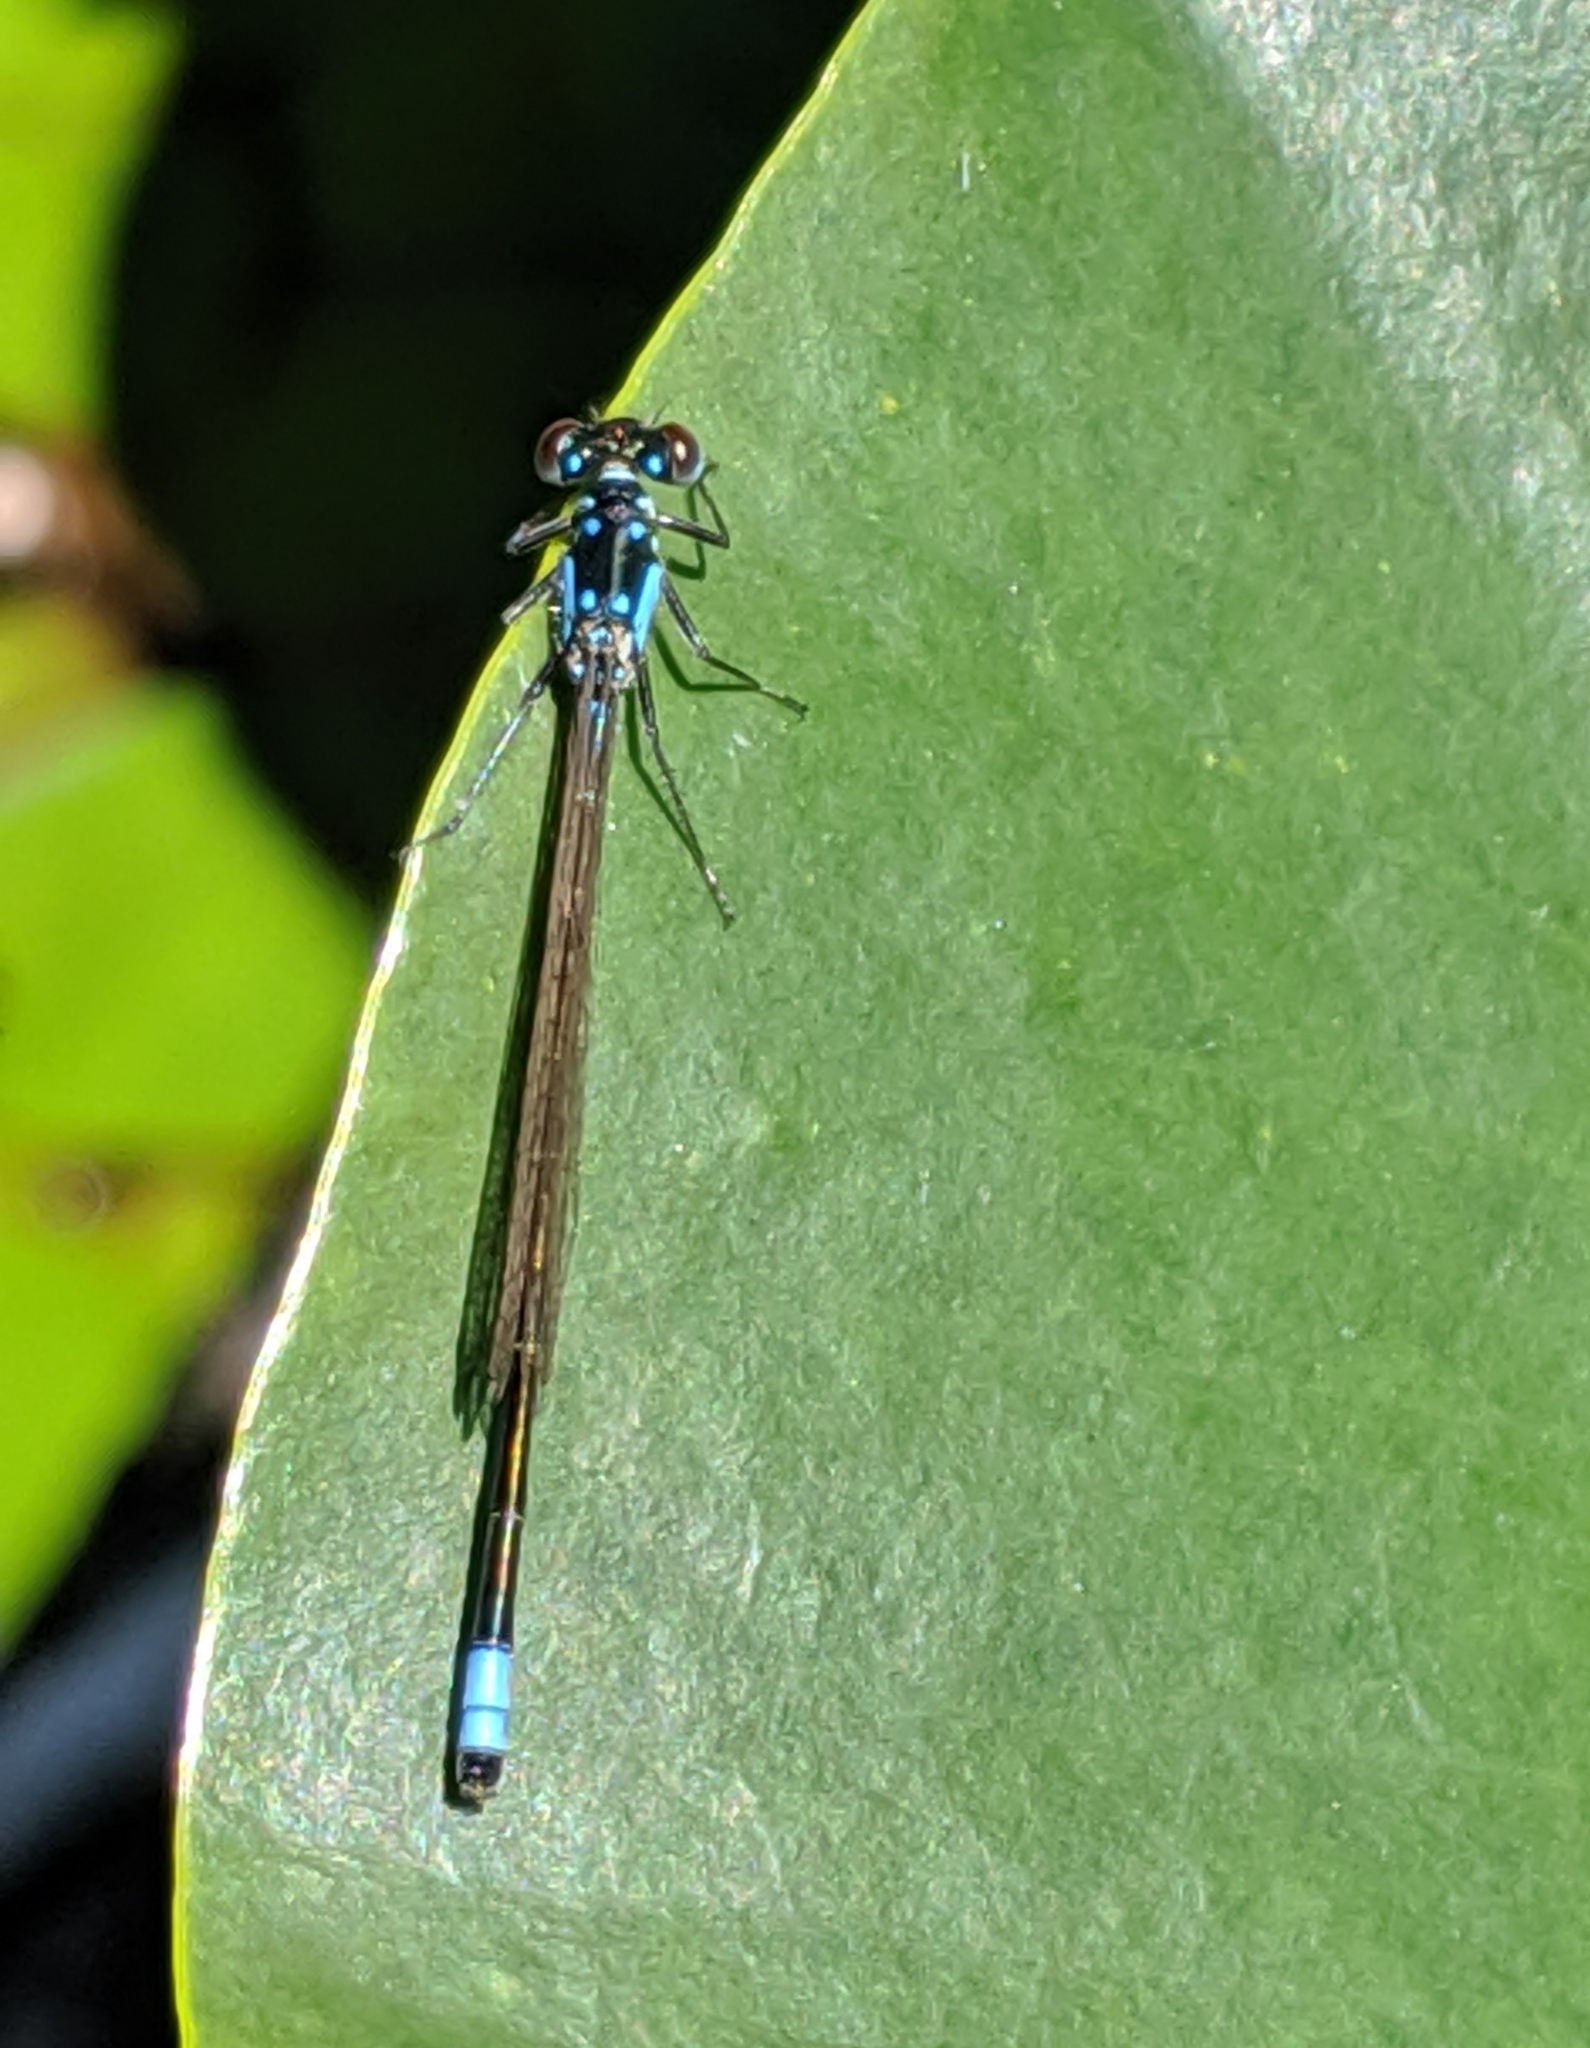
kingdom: Animalia
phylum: Arthropoda
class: Insecta
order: Odonata
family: Coenagrionidae
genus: Ischnura
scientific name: Ischnura cervula
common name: Pacific forktail
